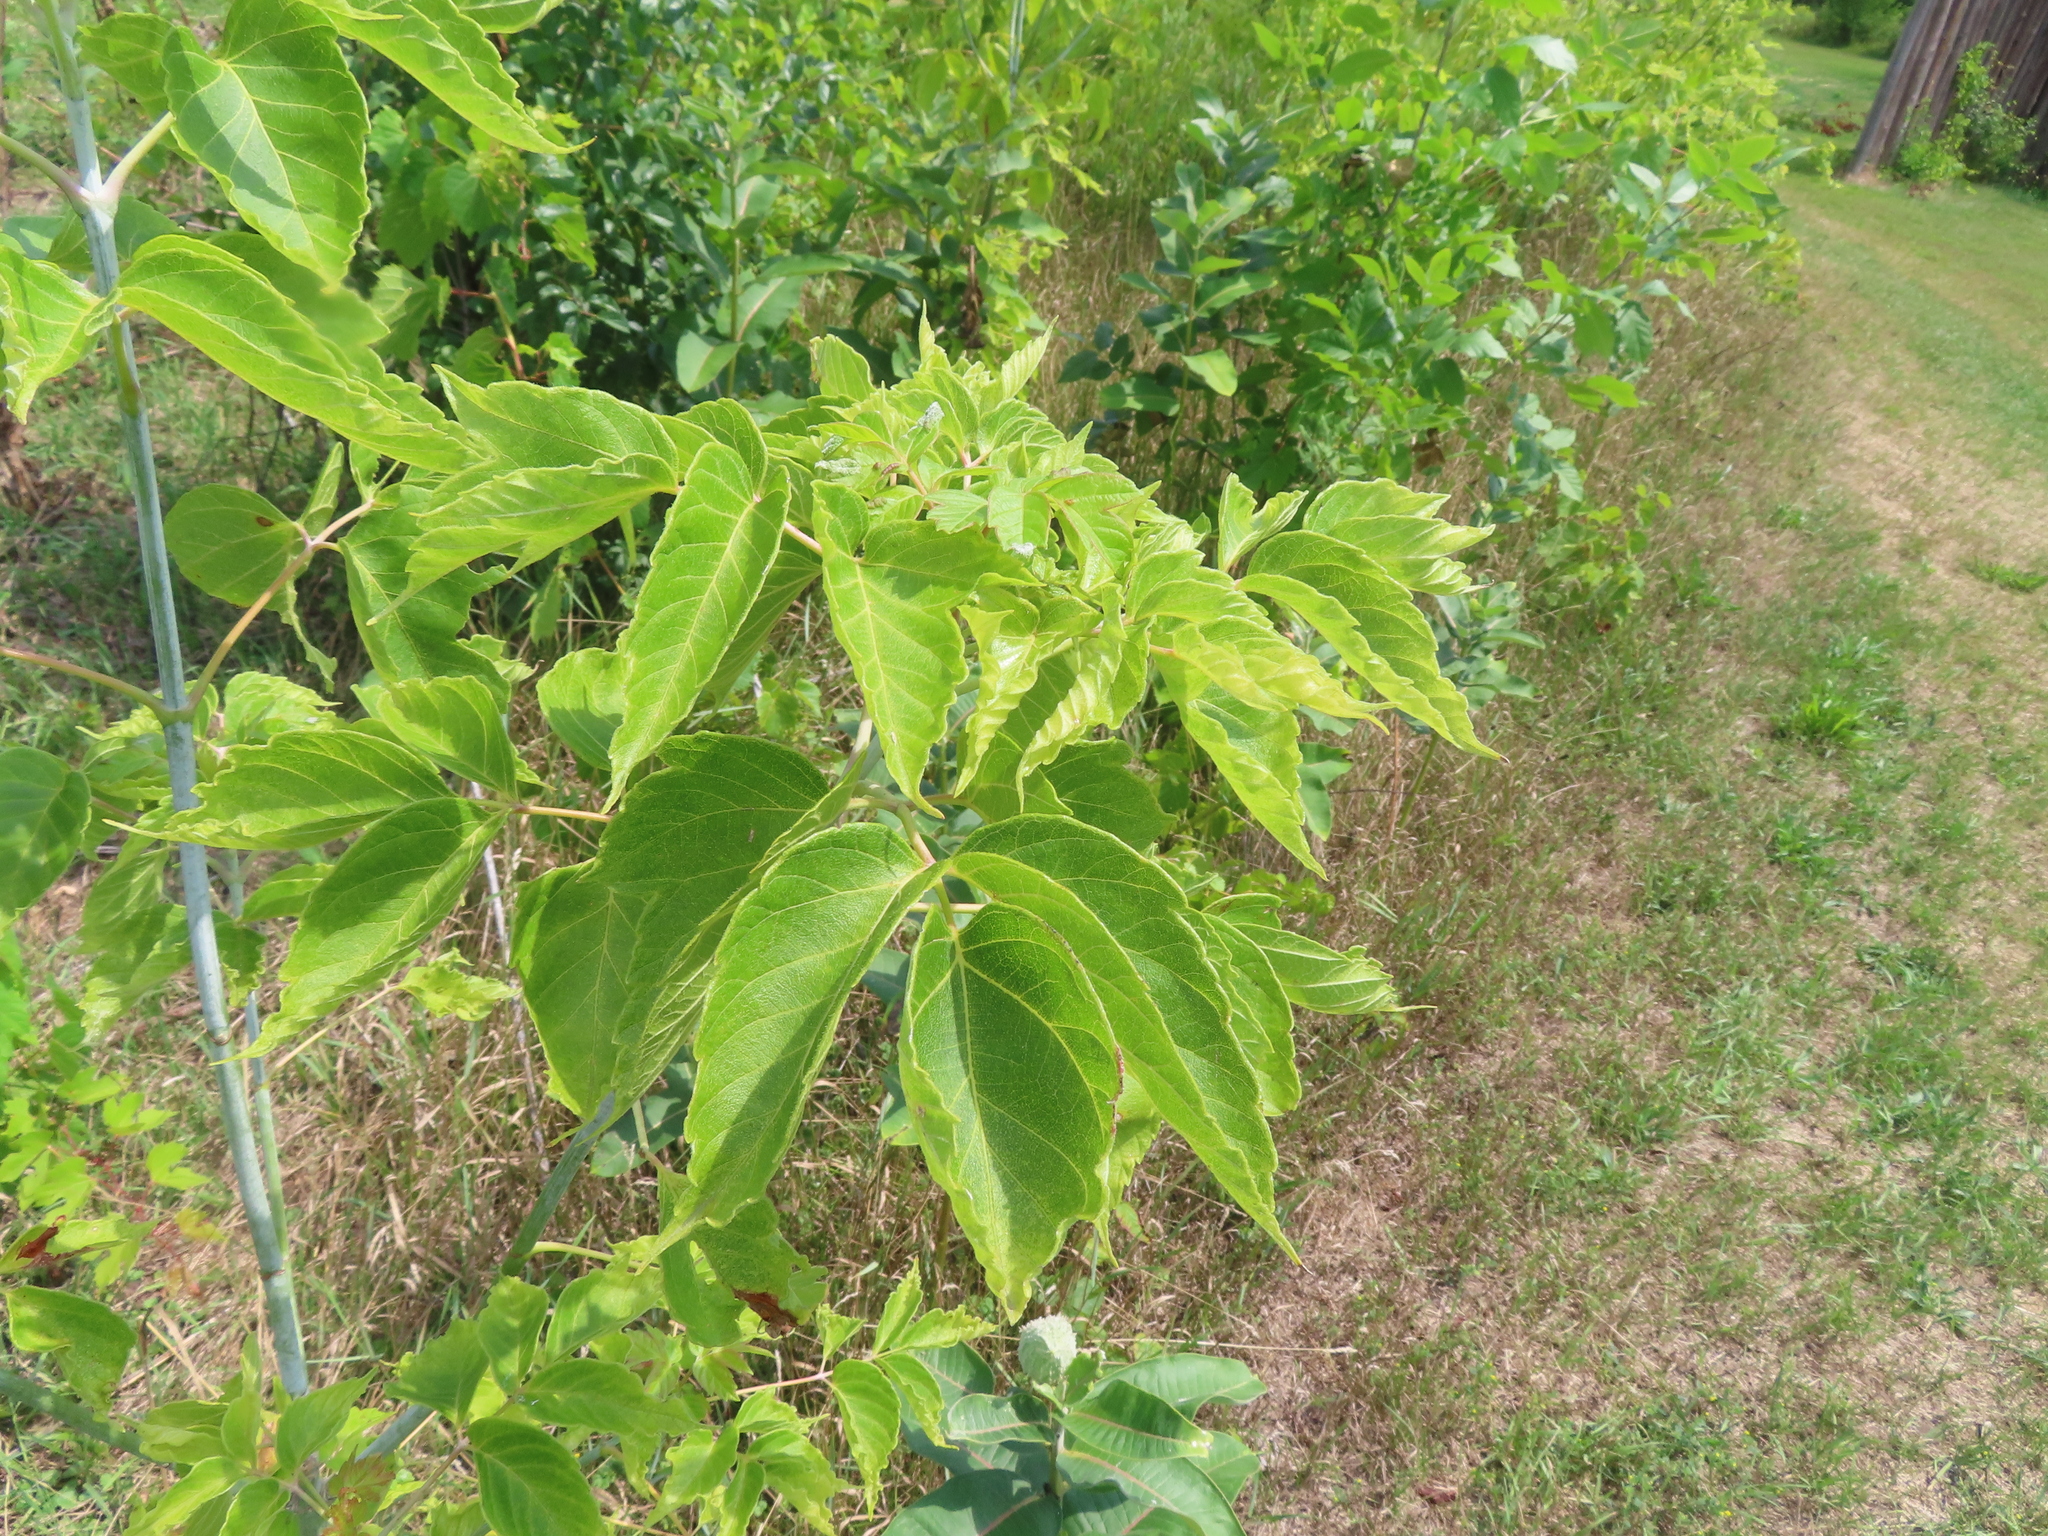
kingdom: Plantae
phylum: Tracheophyta
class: Magnoliopsida
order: Sapindales
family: Sapindaceae
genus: Acer
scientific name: Acer negundo
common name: Ashleaf maple
